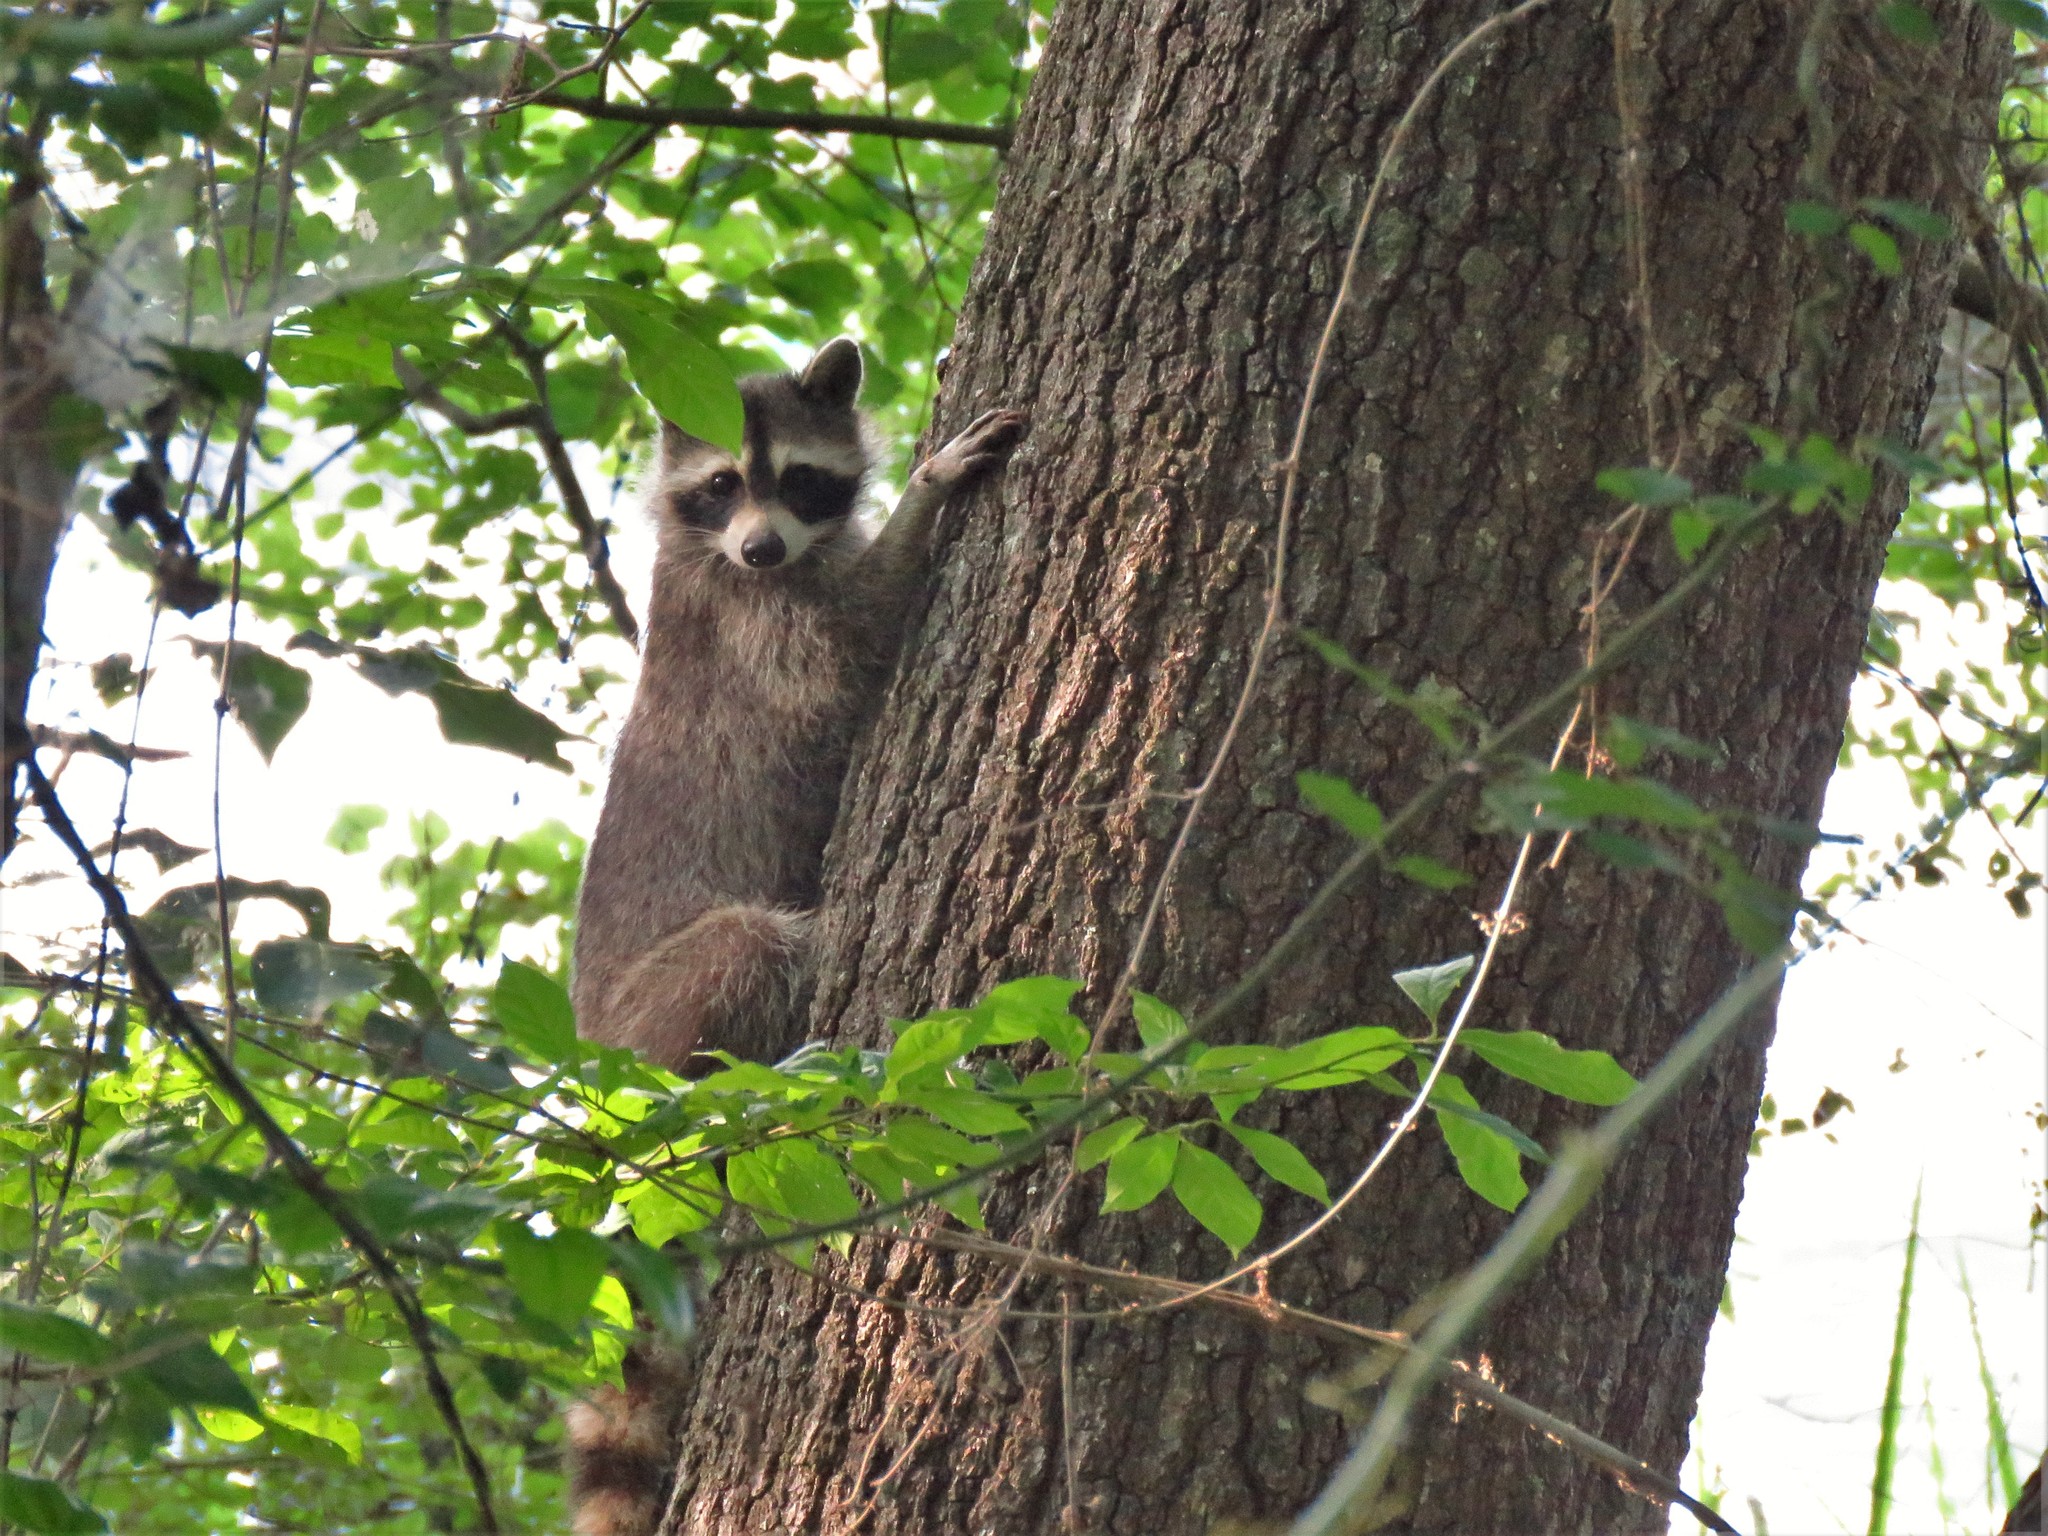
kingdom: Animalia
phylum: Chordata
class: Mammalia
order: Carnivora
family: Procyonidae
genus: Procyon
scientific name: Procyon lotor
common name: Raccoon
